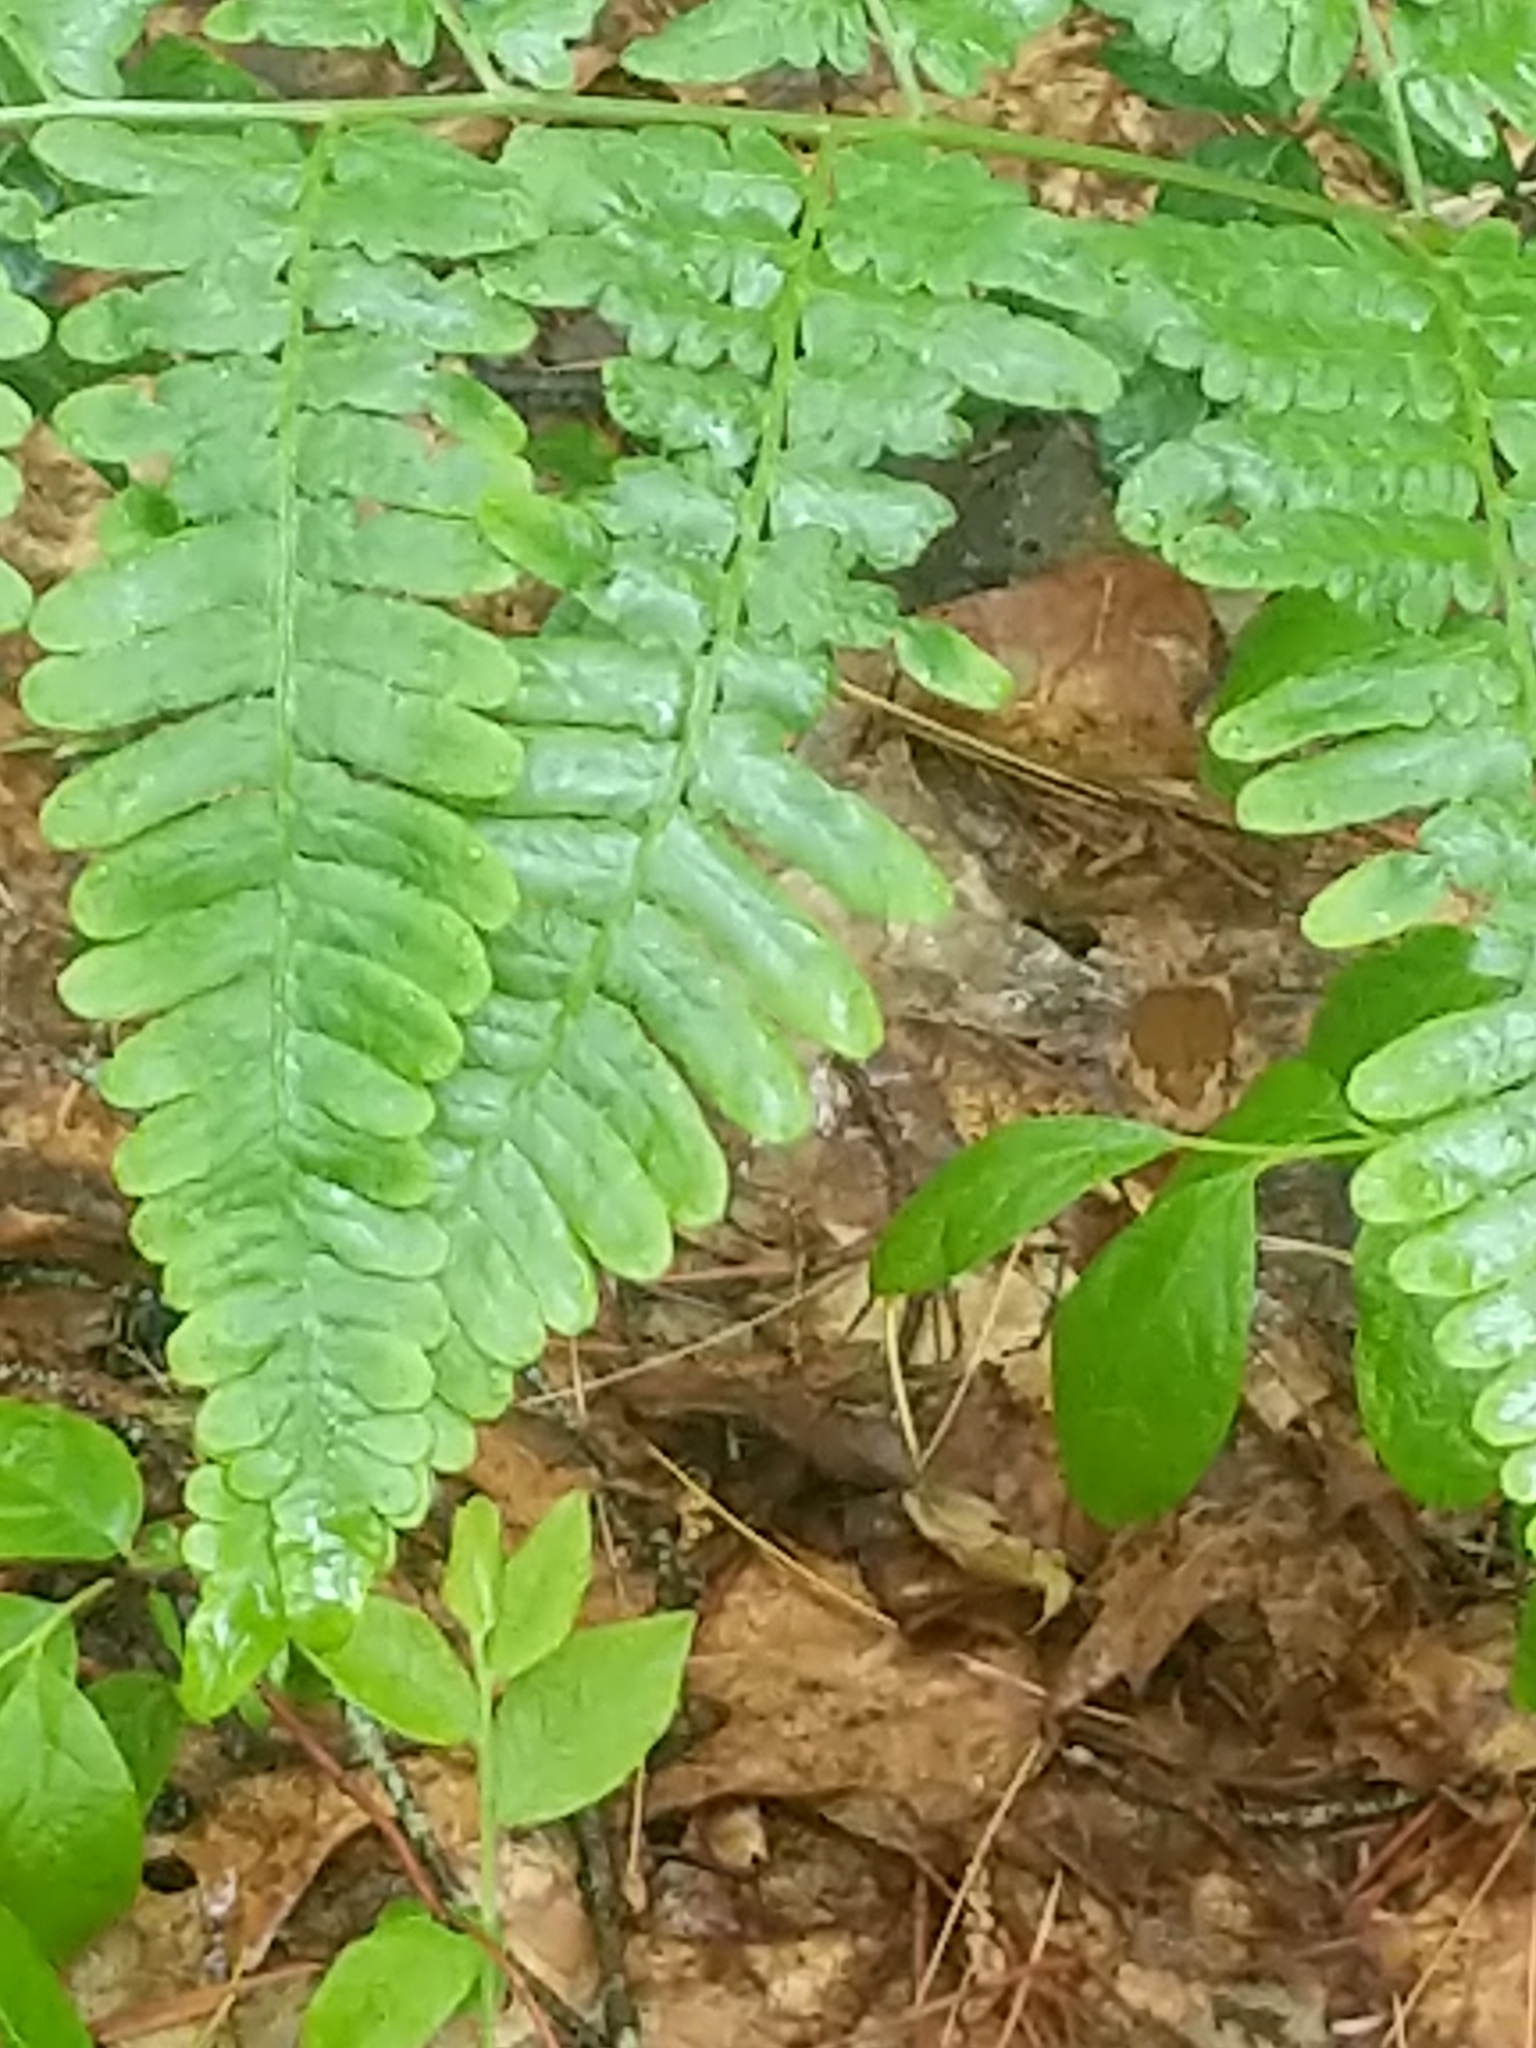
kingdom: Plantae
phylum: Tracheophyta
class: Polypodiopsida
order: Polypodiales
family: Dennstaedtiaceae
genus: Pteridium
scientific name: Pteridium aquilinum
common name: Bracken
